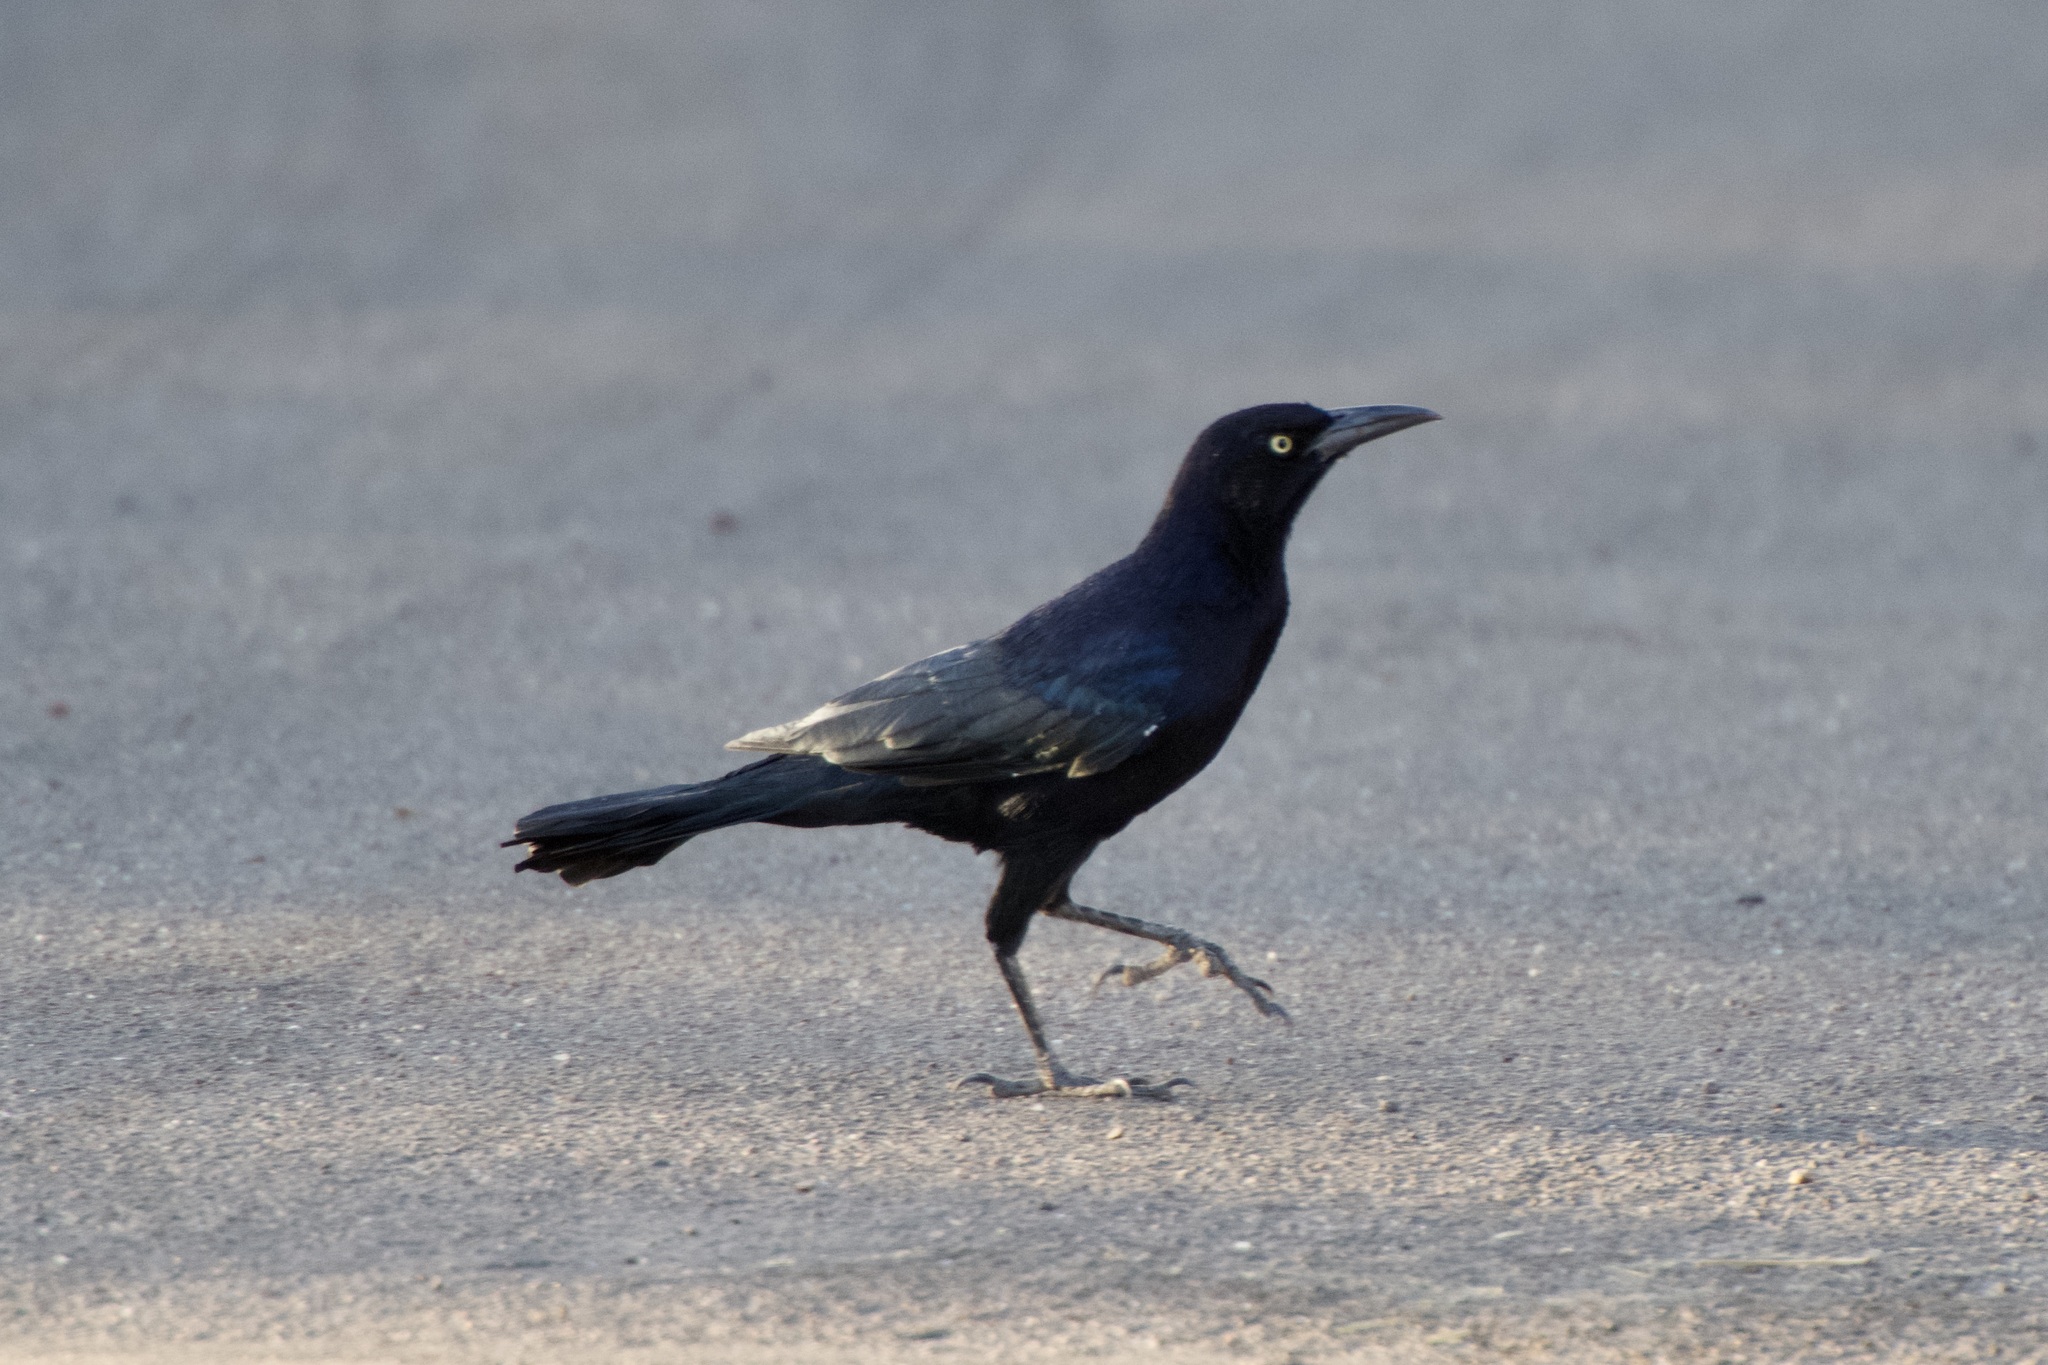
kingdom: Animalia
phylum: Chordata
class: Aves
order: Passeriformes
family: Icteridae
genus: Quiscalus
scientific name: Quiscalus mexicanus
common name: Great-tailed grackle
